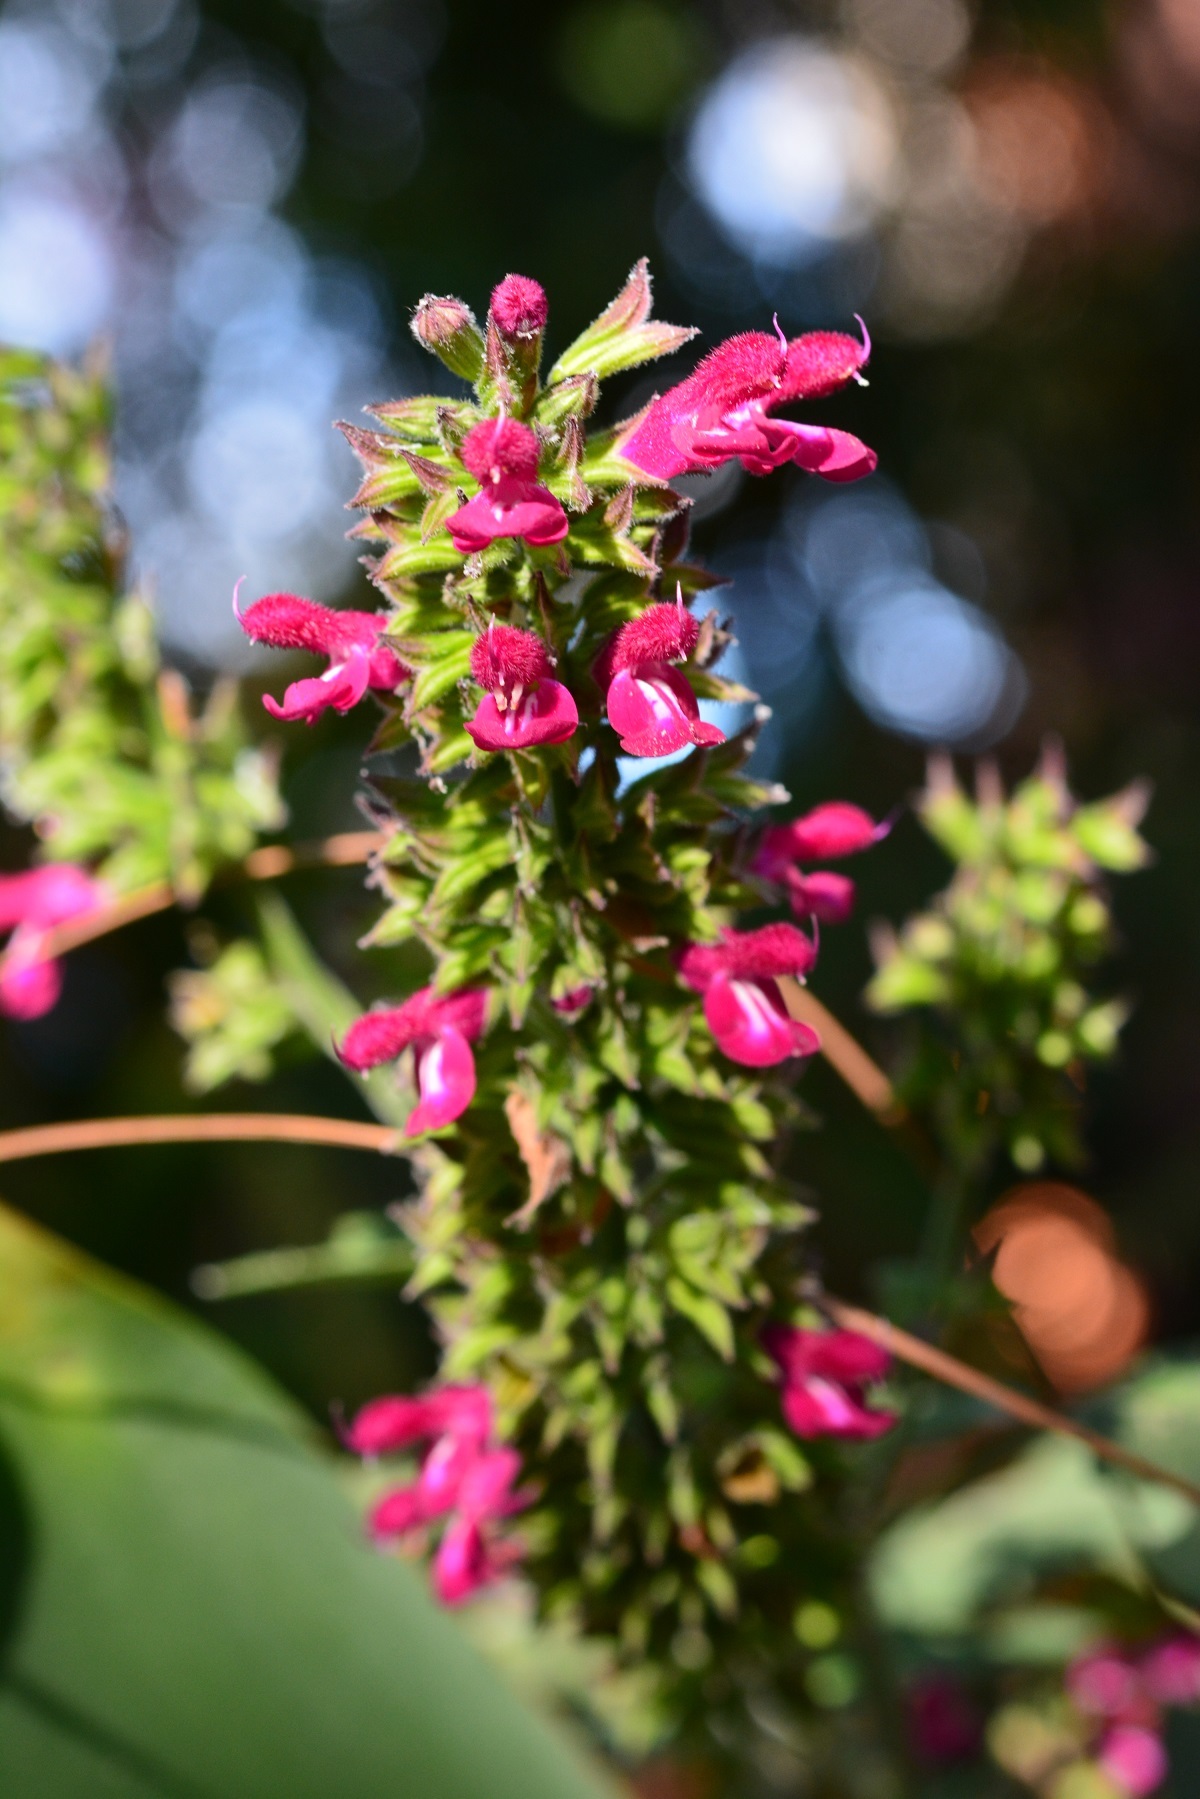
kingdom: Plantae
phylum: Tracheophyta
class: Magnoliopsida
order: Lamiales
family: Lamiaceae
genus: Salvia
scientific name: Salvia chiapensis
